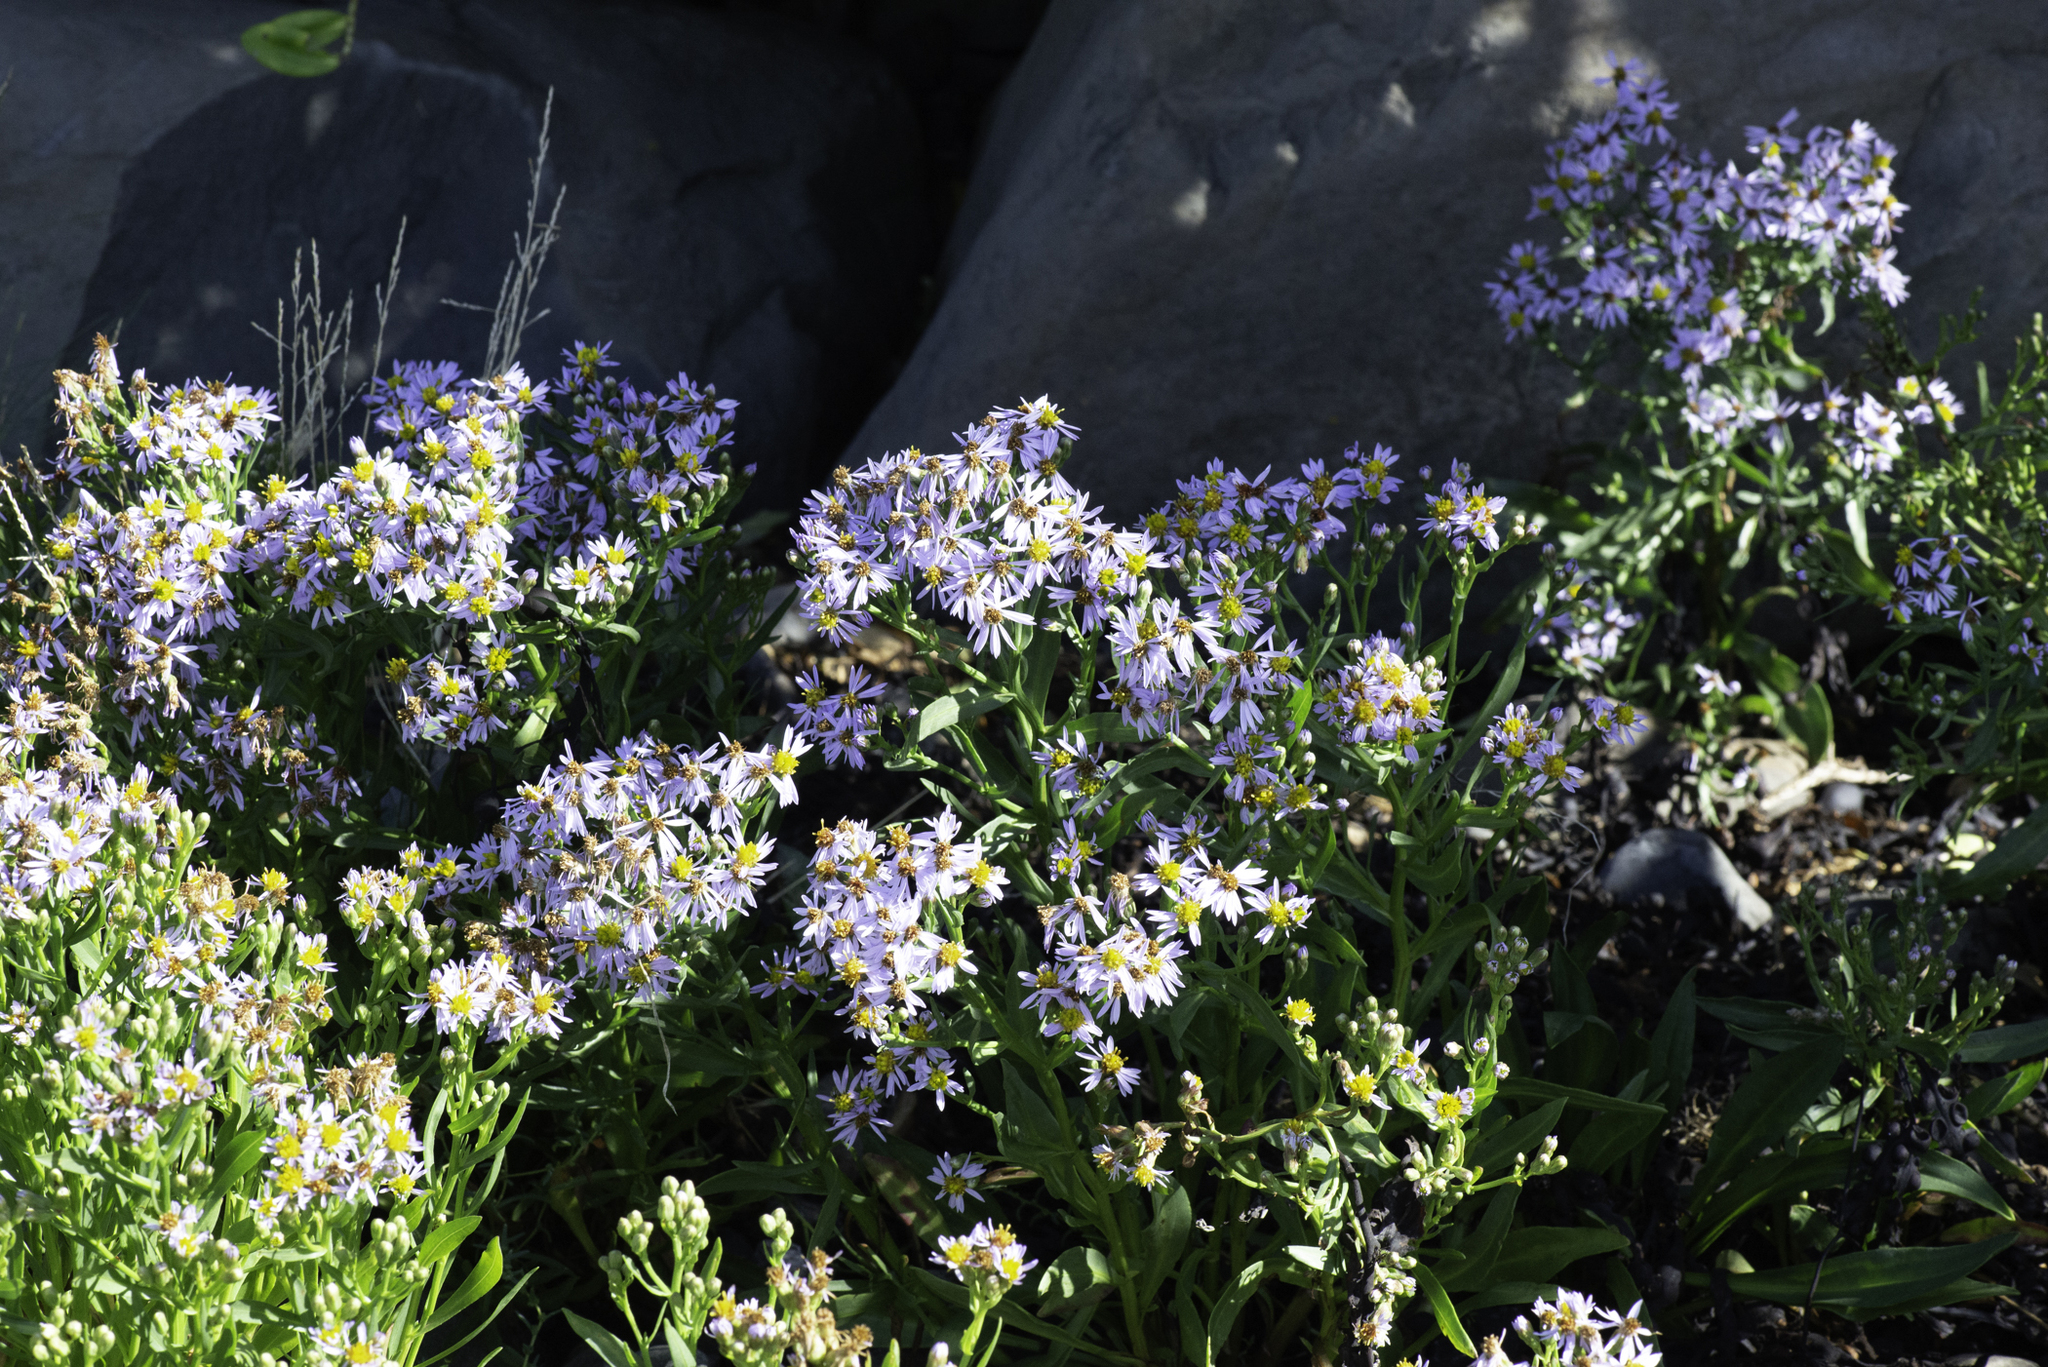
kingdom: Plantae
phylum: Tracheophyta
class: Magnoliopsida
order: Asterales
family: Asteraceae
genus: Tripolium
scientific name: Tripolium pannonicum
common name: Sea aster
